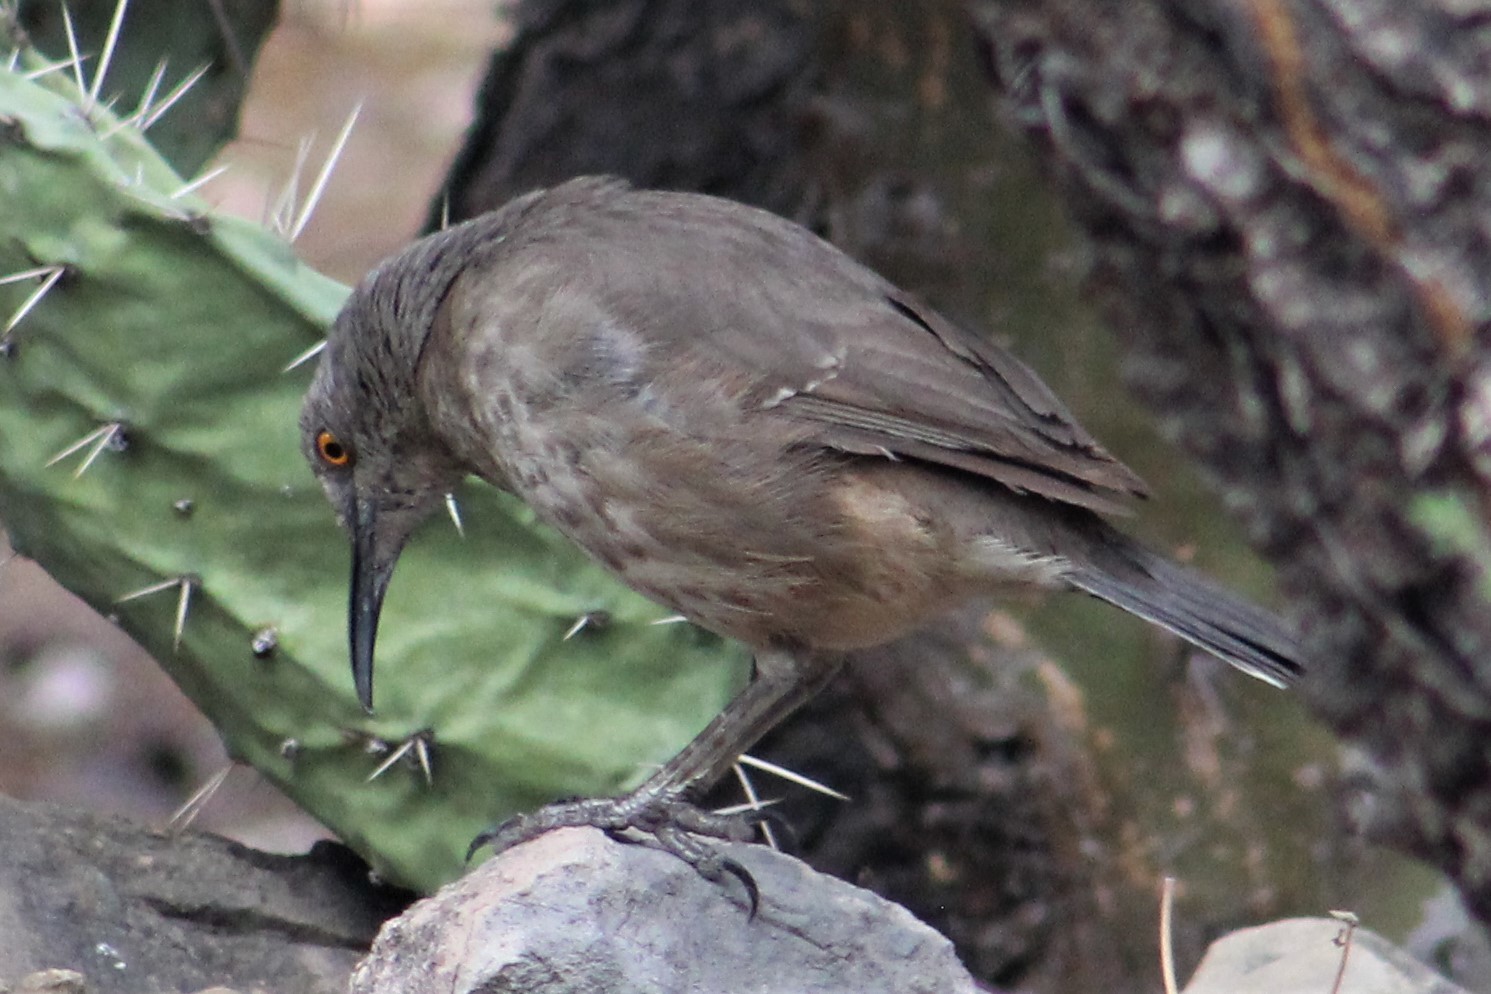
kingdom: Animalia
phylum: Chordata
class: Aves
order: Passeriformes
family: Mimidae
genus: Toxostoma
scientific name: Toxostoma curvirostre
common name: Curve-billed thrasher
